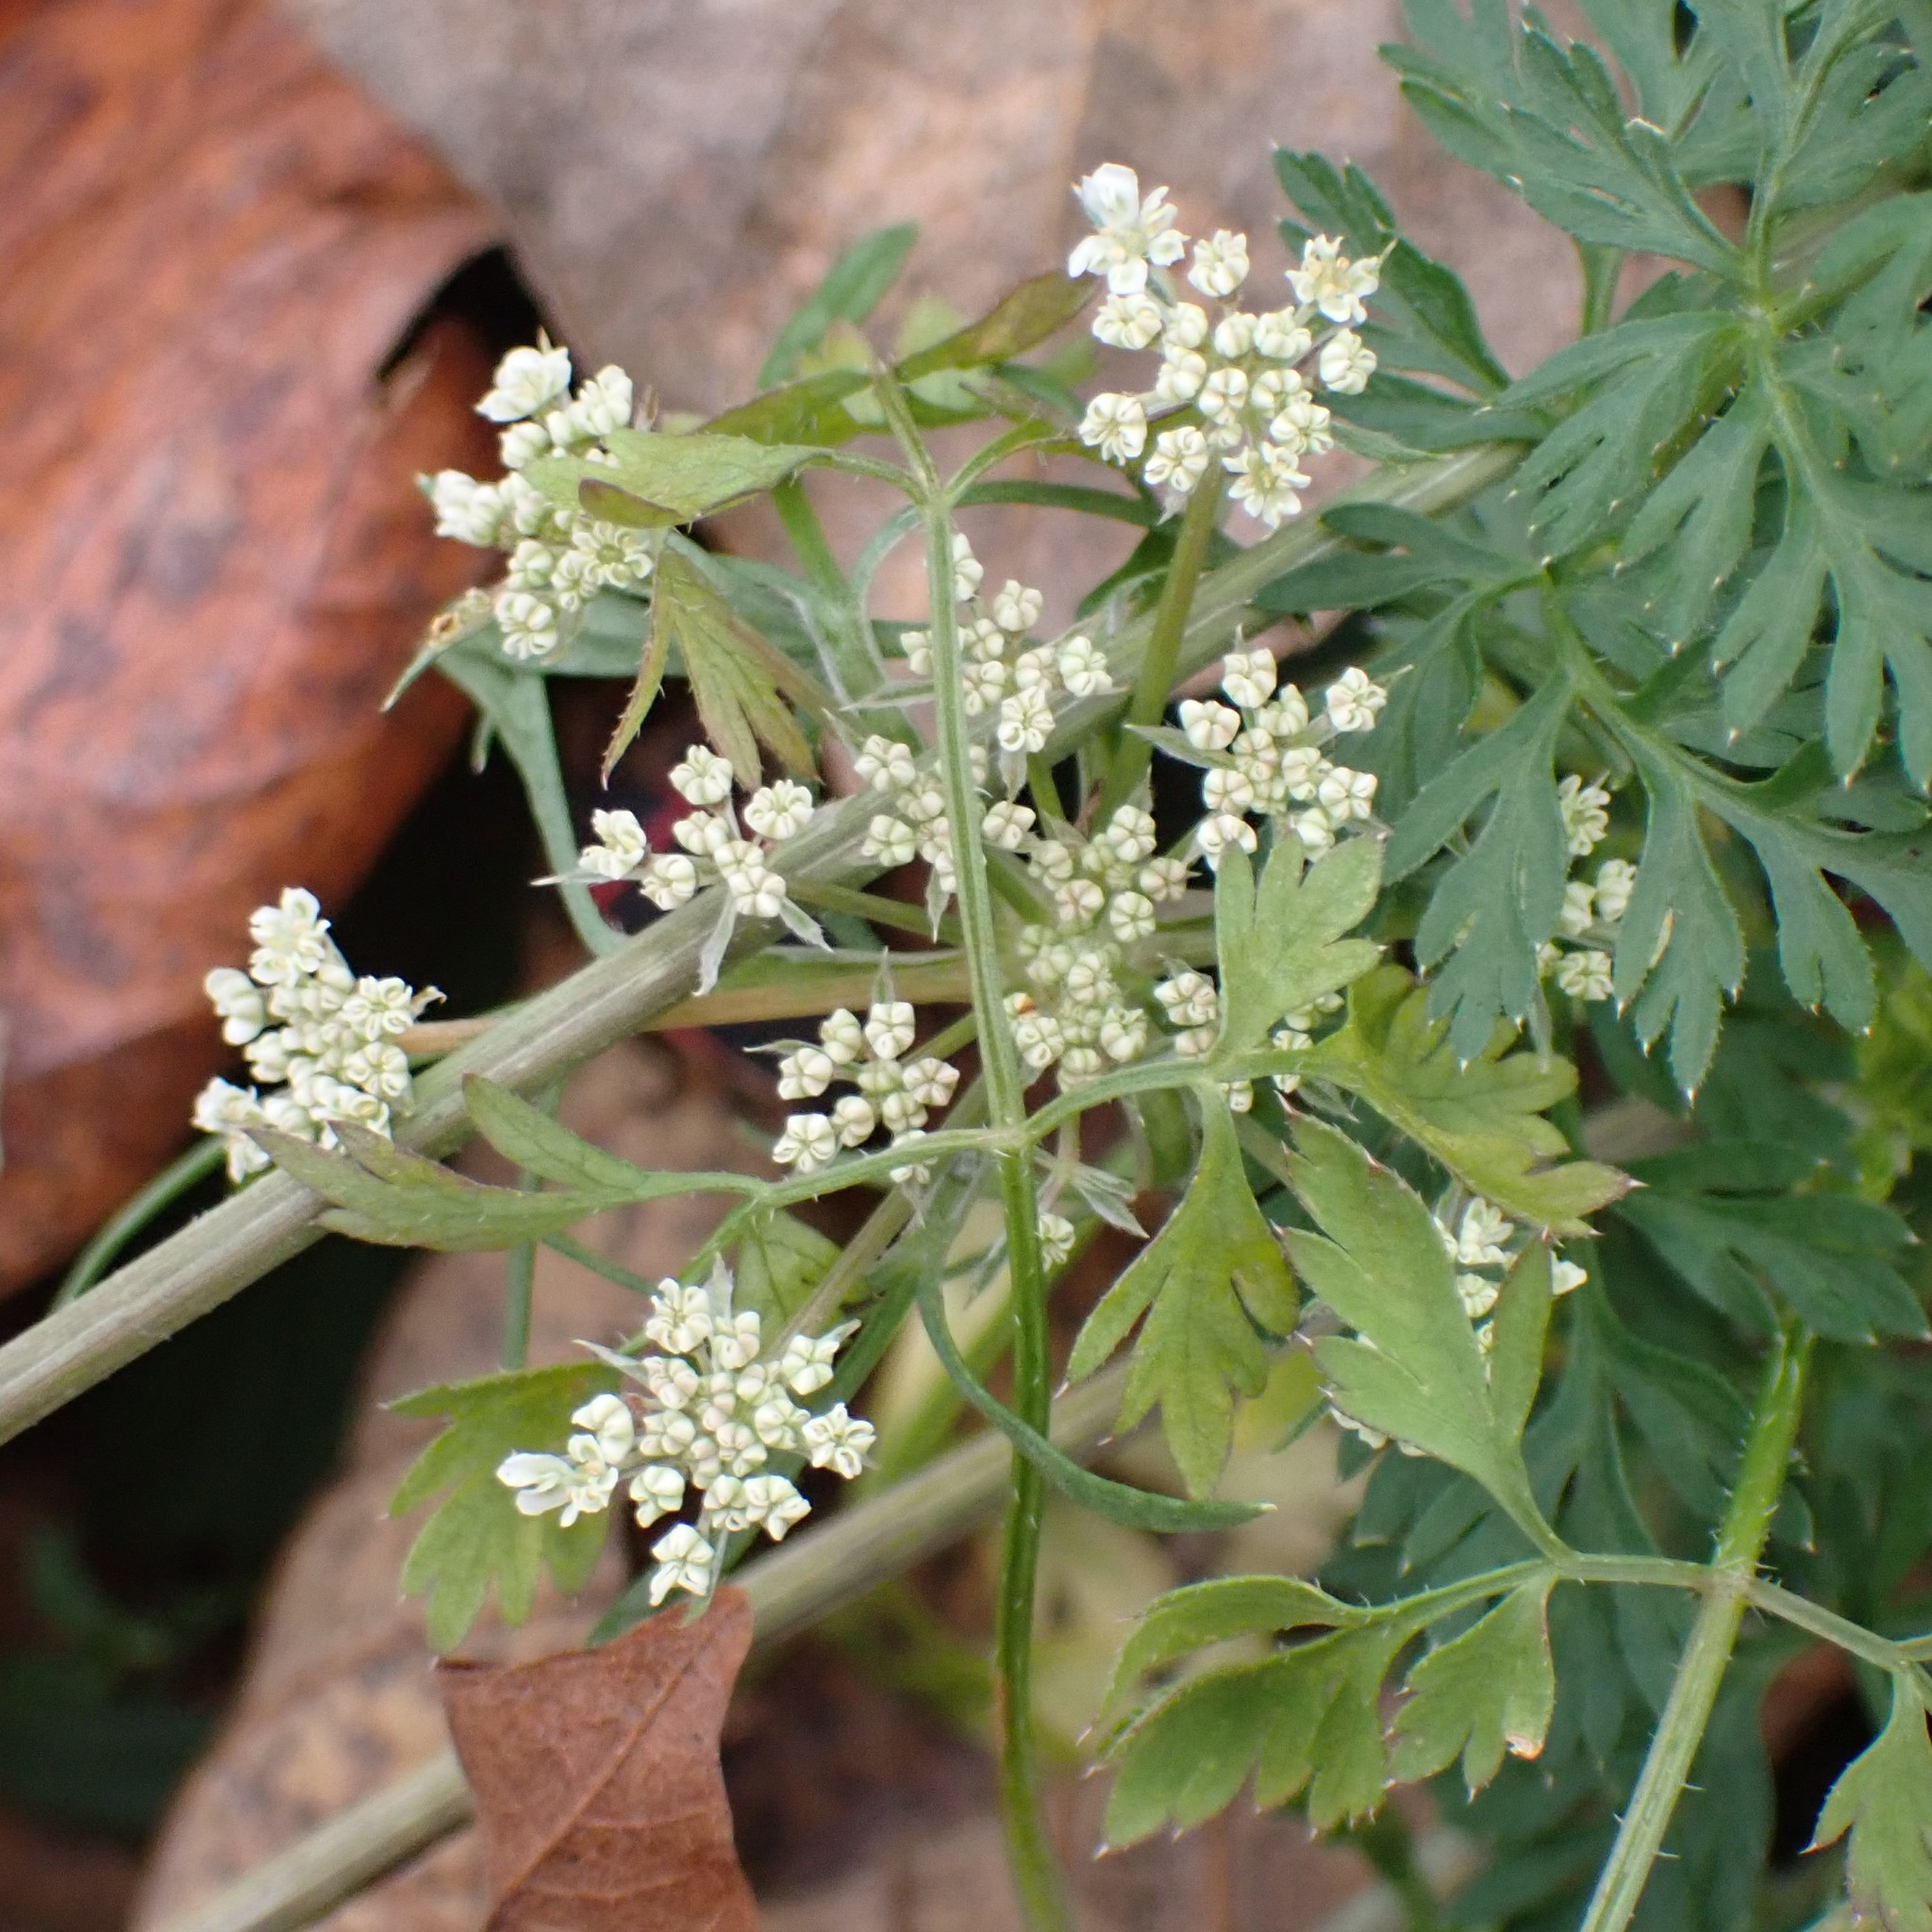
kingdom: Plantae
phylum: Tracheophyta
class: Magnoliopsida
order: Apiales
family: Apiaceae
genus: Daucus
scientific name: Daucus carota
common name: Wild carrot
